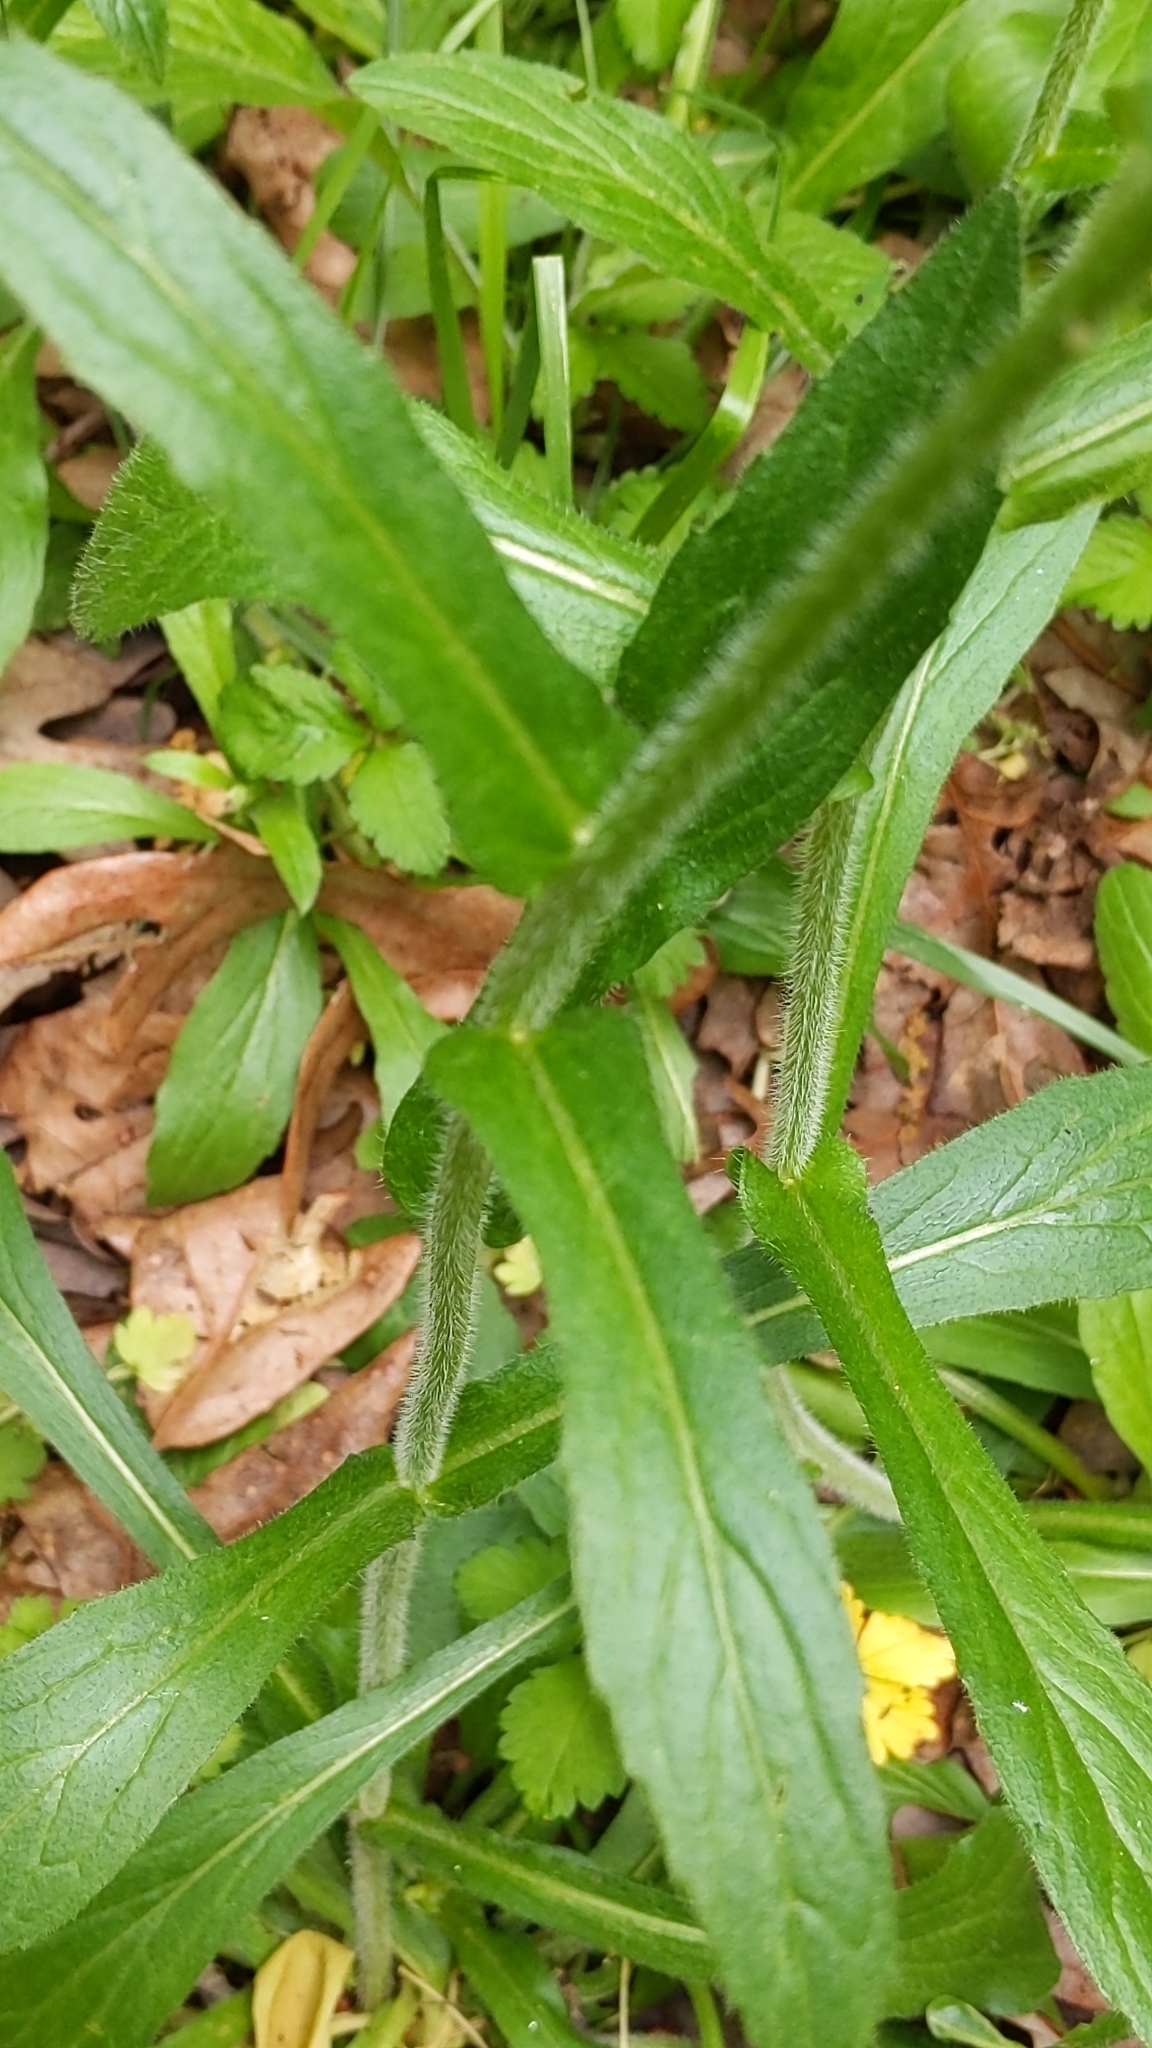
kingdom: Plantae
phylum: Tracheophyta
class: Magnoliopsida
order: Asterales
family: Asteraceae
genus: Erigeron
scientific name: Erigeron philadelphicus
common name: Robin's-plantain
